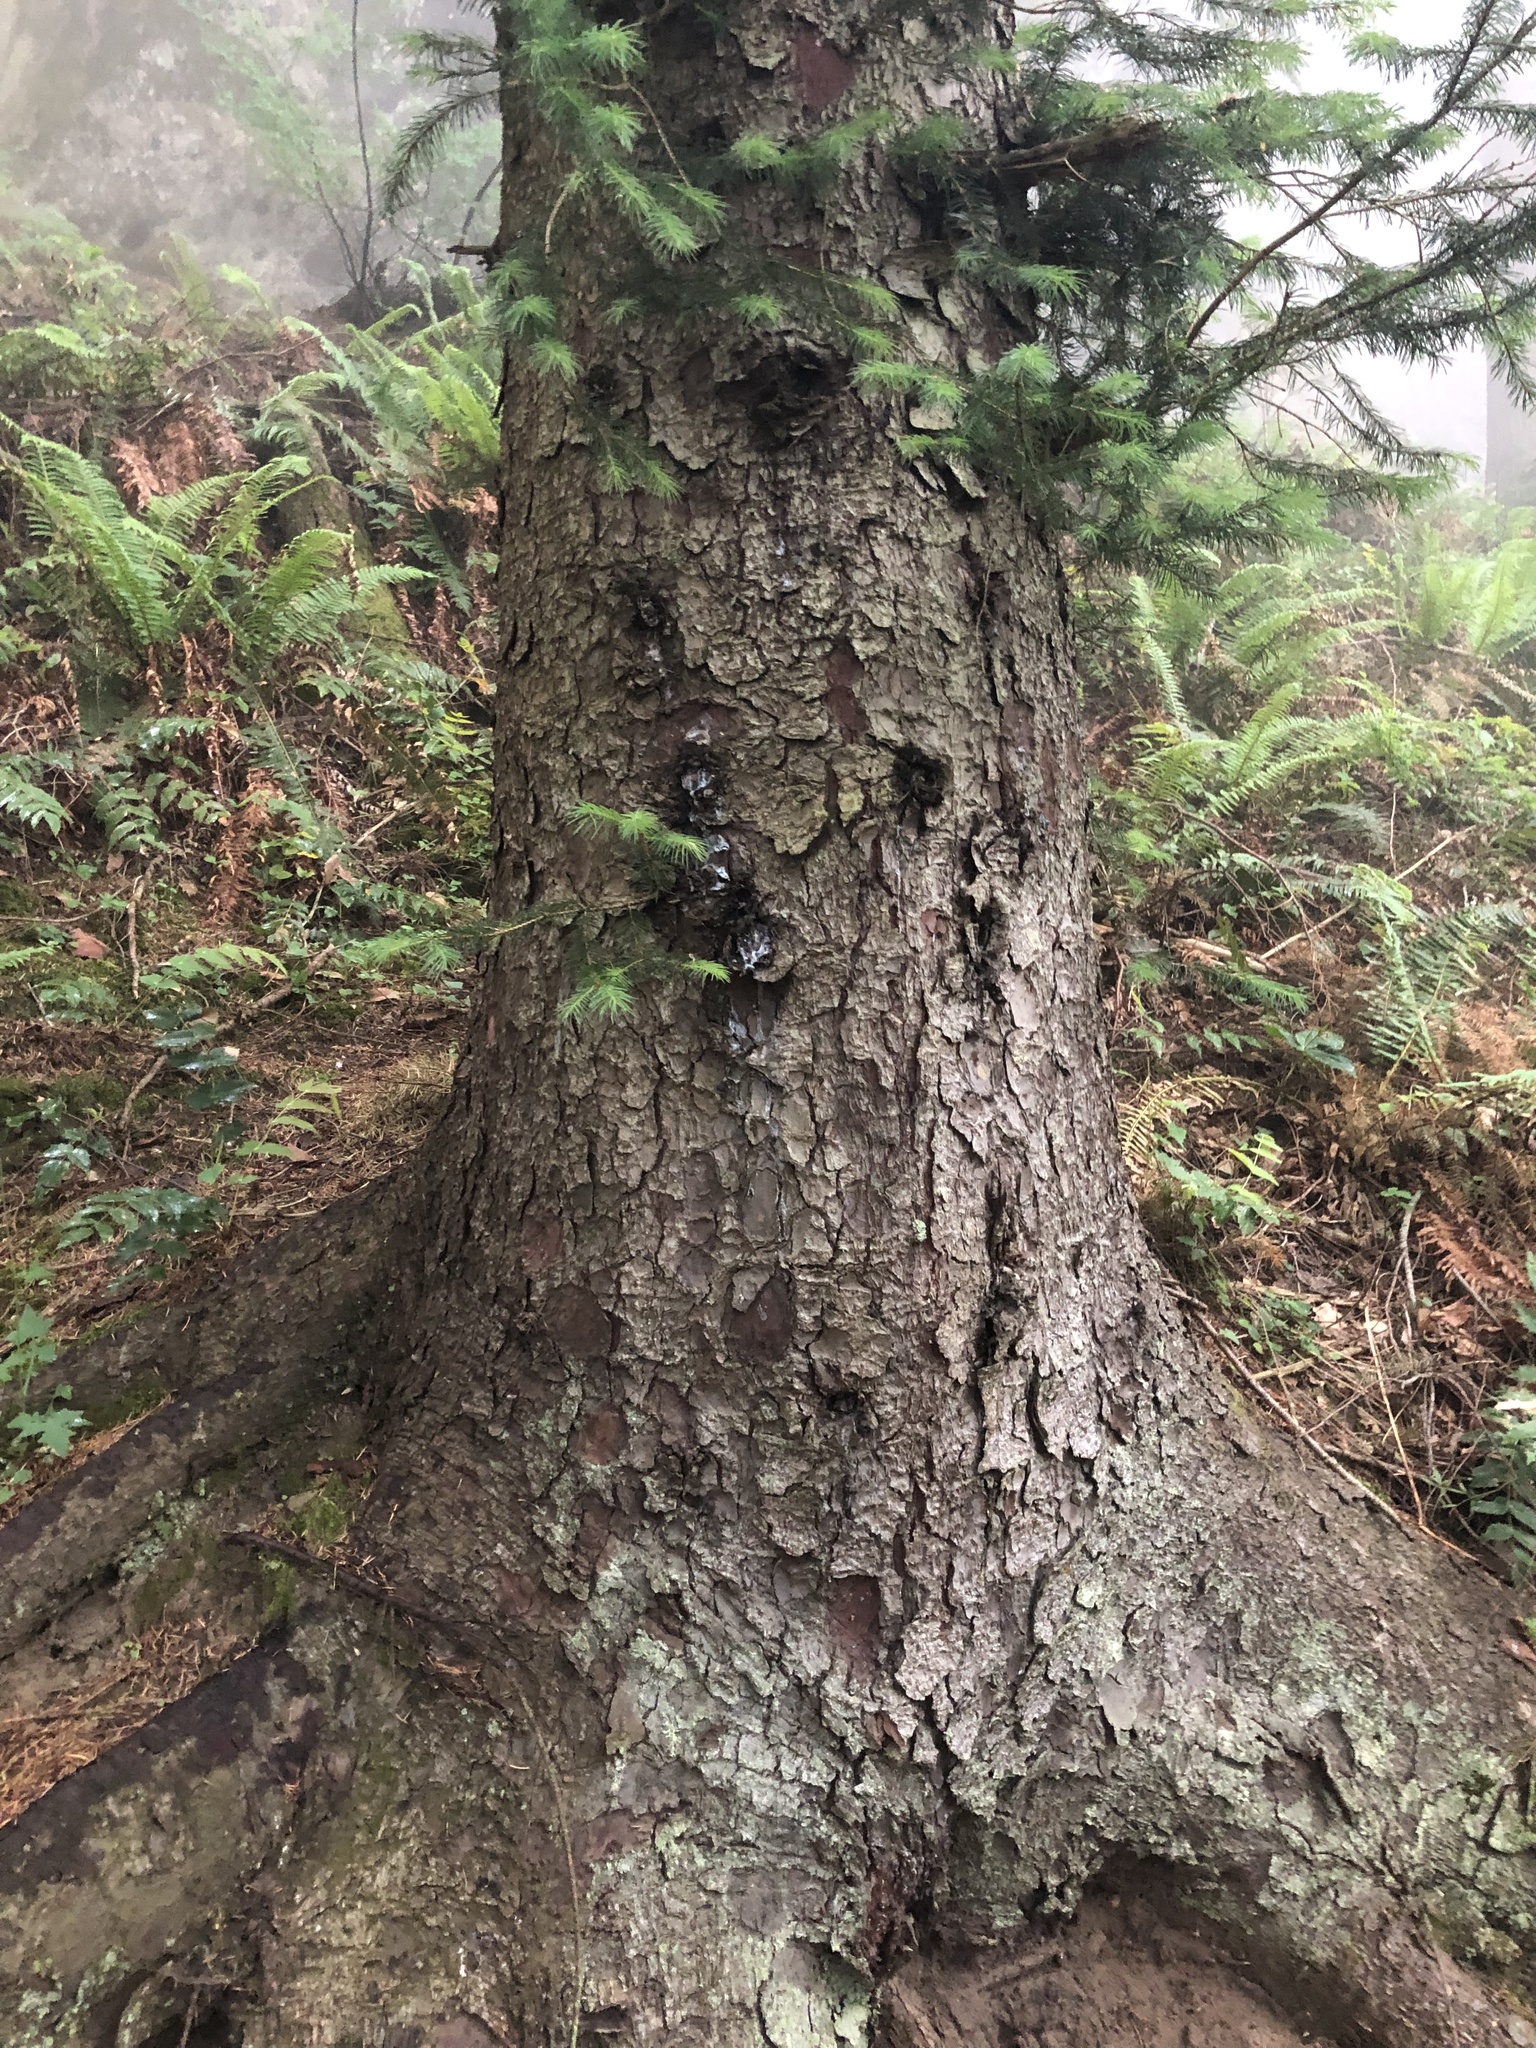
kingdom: Plantae
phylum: Tracheophyta
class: Pinopsida
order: Pinales
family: Pinaceae
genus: Picea
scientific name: Picea sitchensis
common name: Sitka spruce
